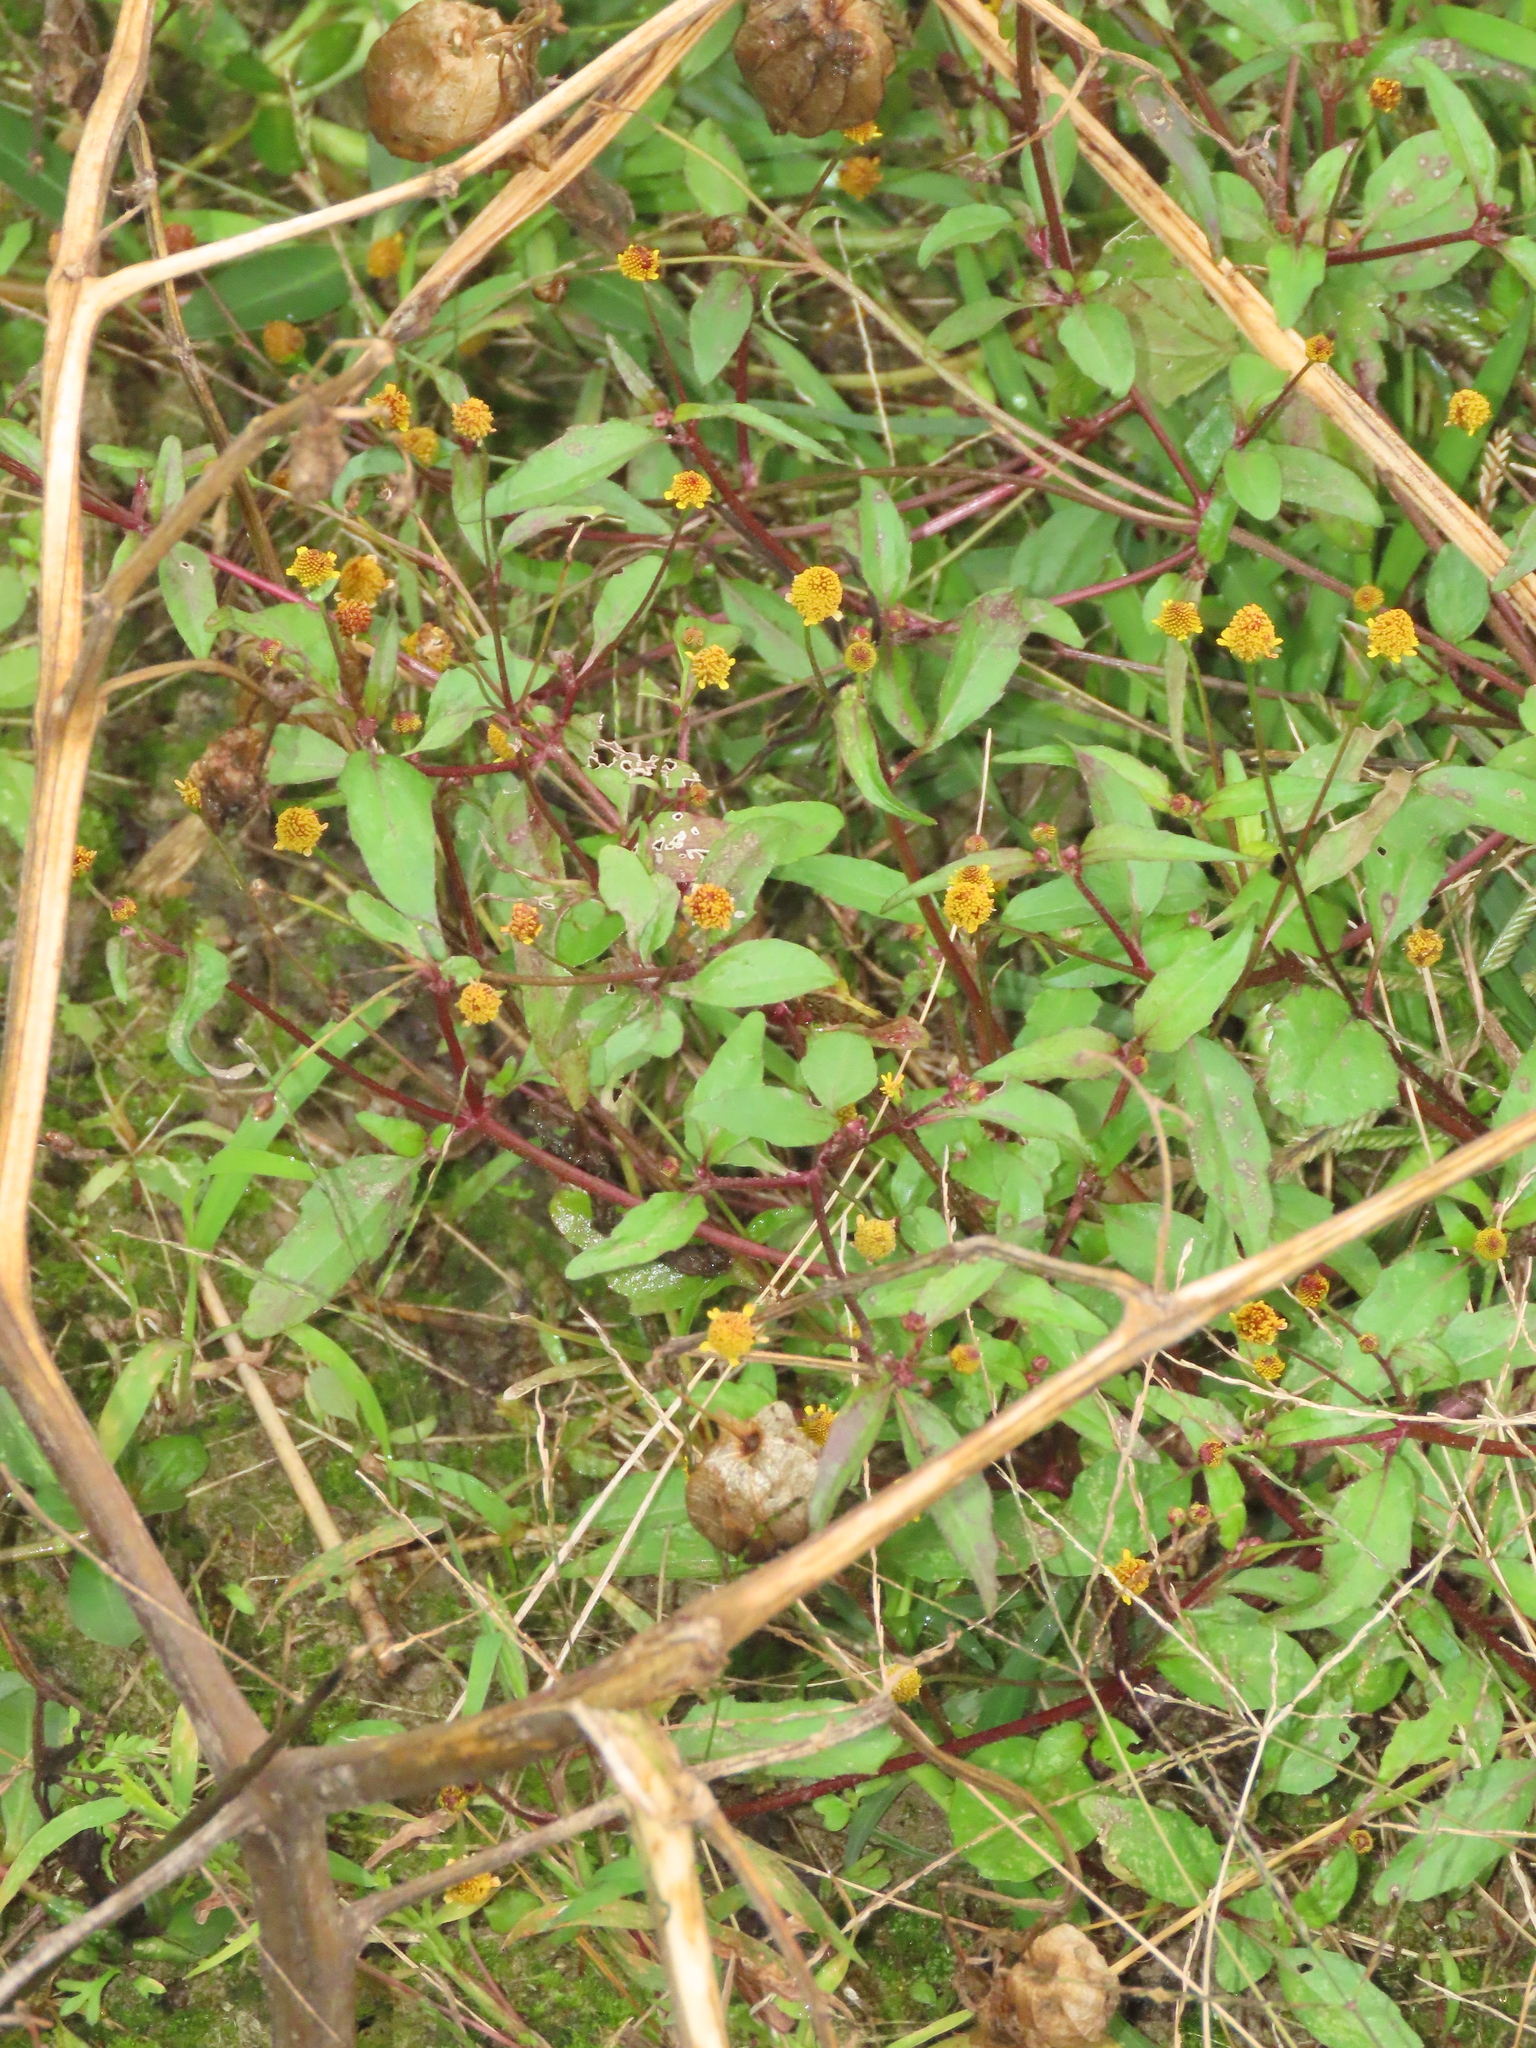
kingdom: Plantae
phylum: Tracheophyta
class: Magnoliopsida
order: Asterales
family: Asteraceae
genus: Acmella
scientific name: Acmella uliginosa
